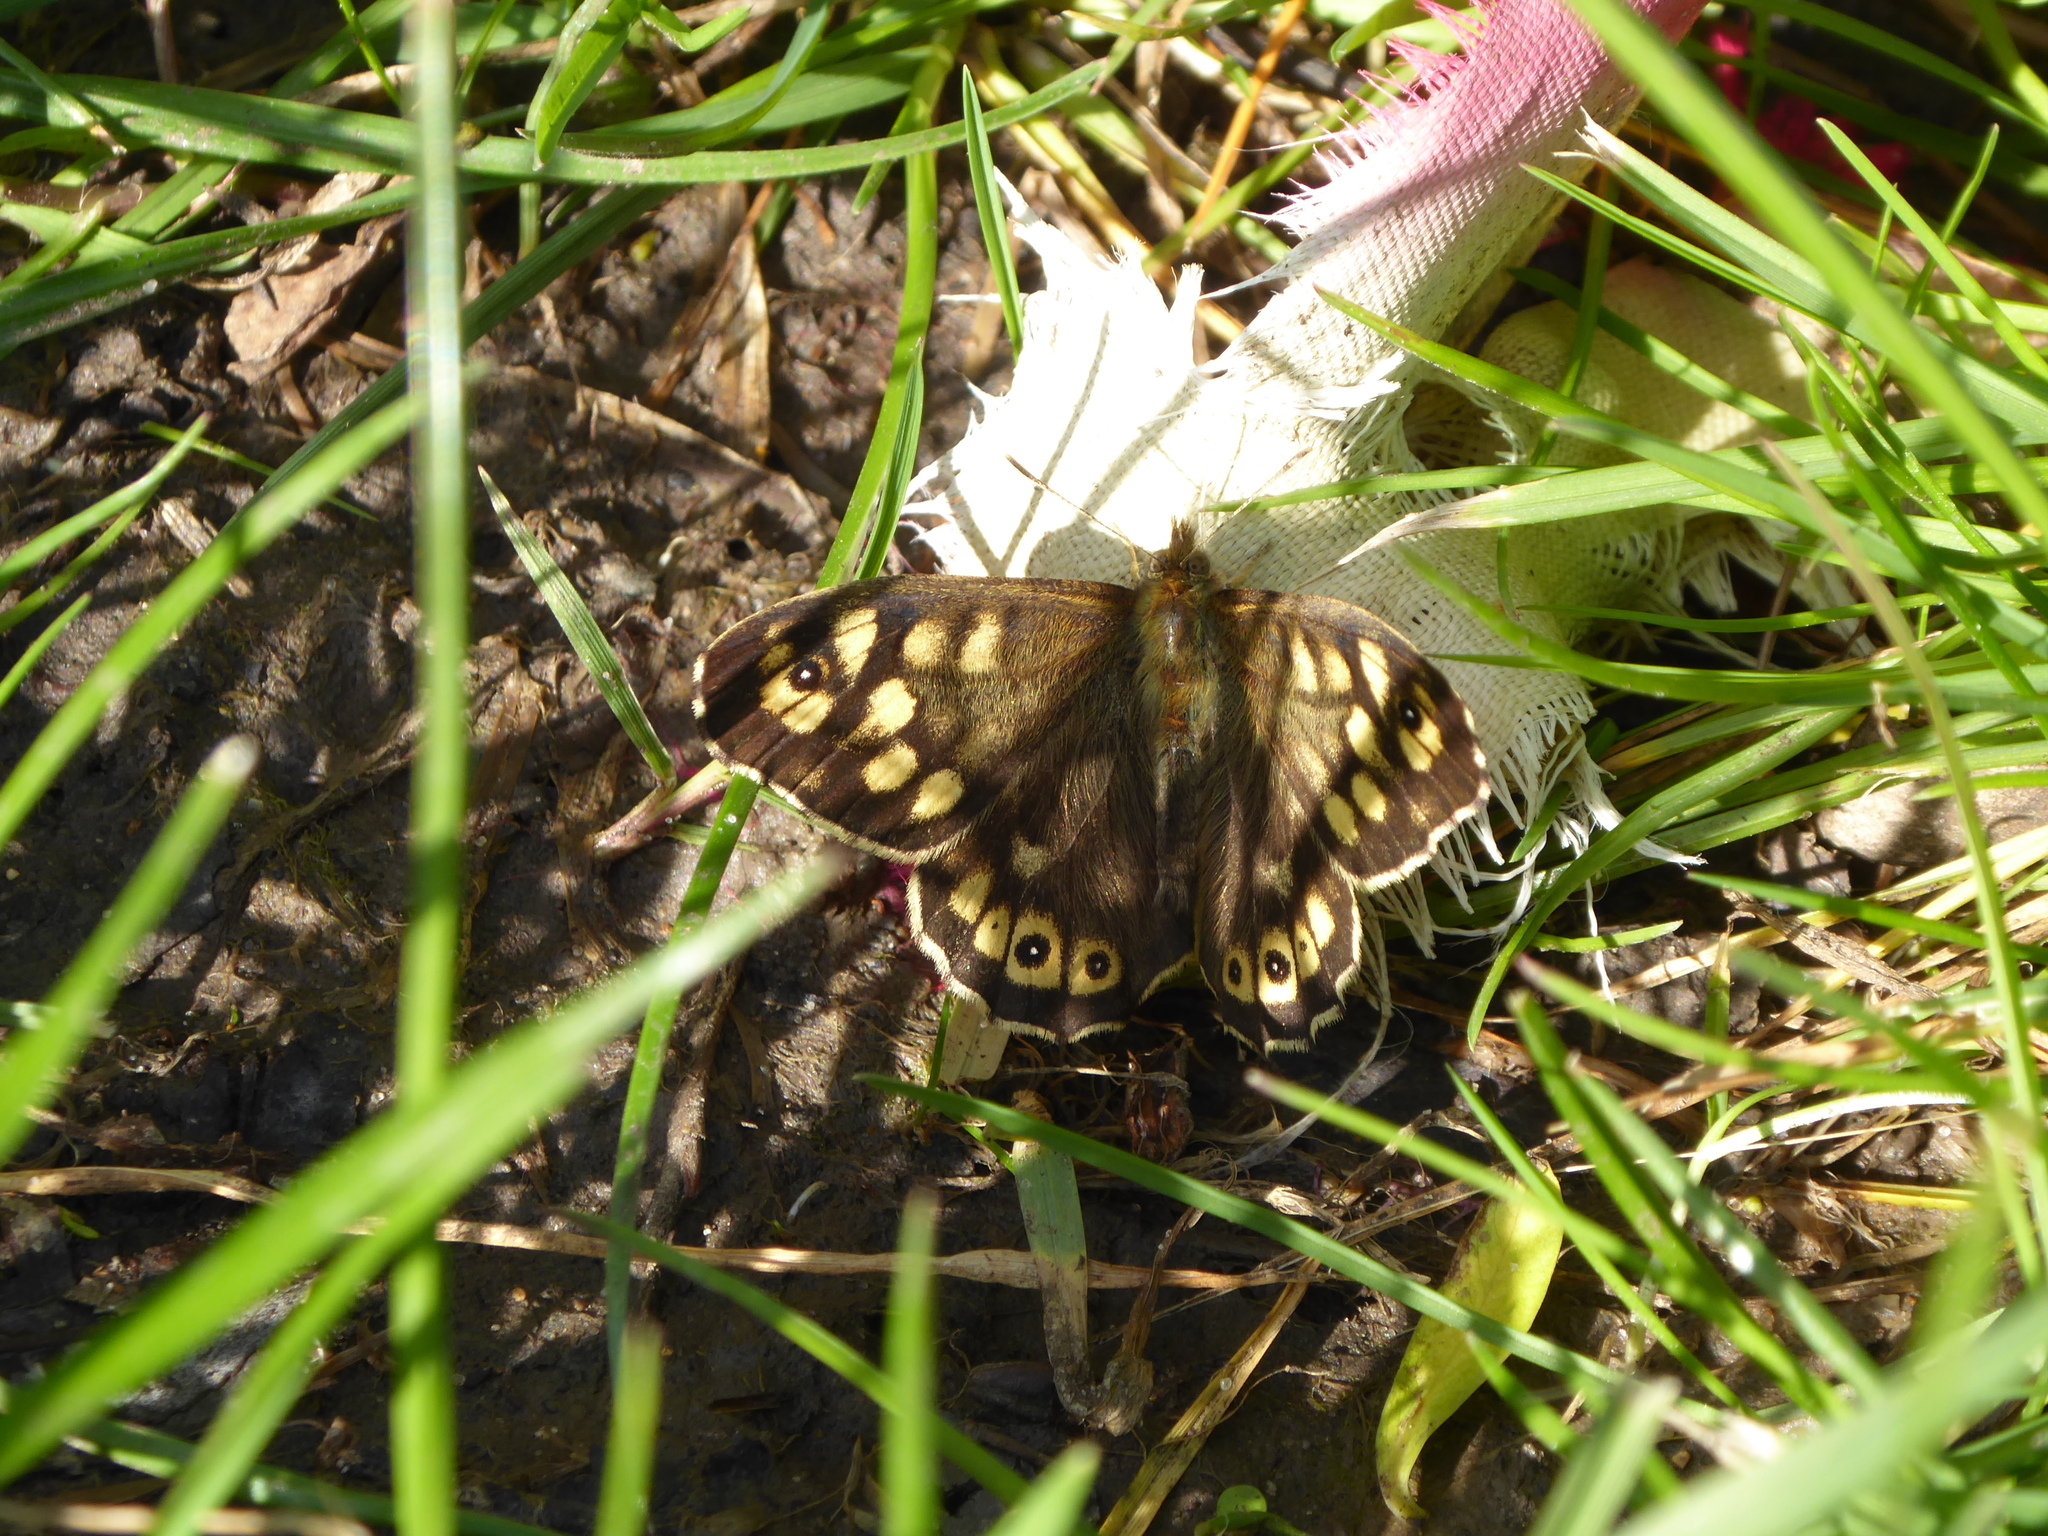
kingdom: Animalia
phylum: Arthropoda
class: Insecta
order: Lepidoptera
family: Nymphalidae
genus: Pararge
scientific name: Pararge aegeria
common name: Speckled wood
